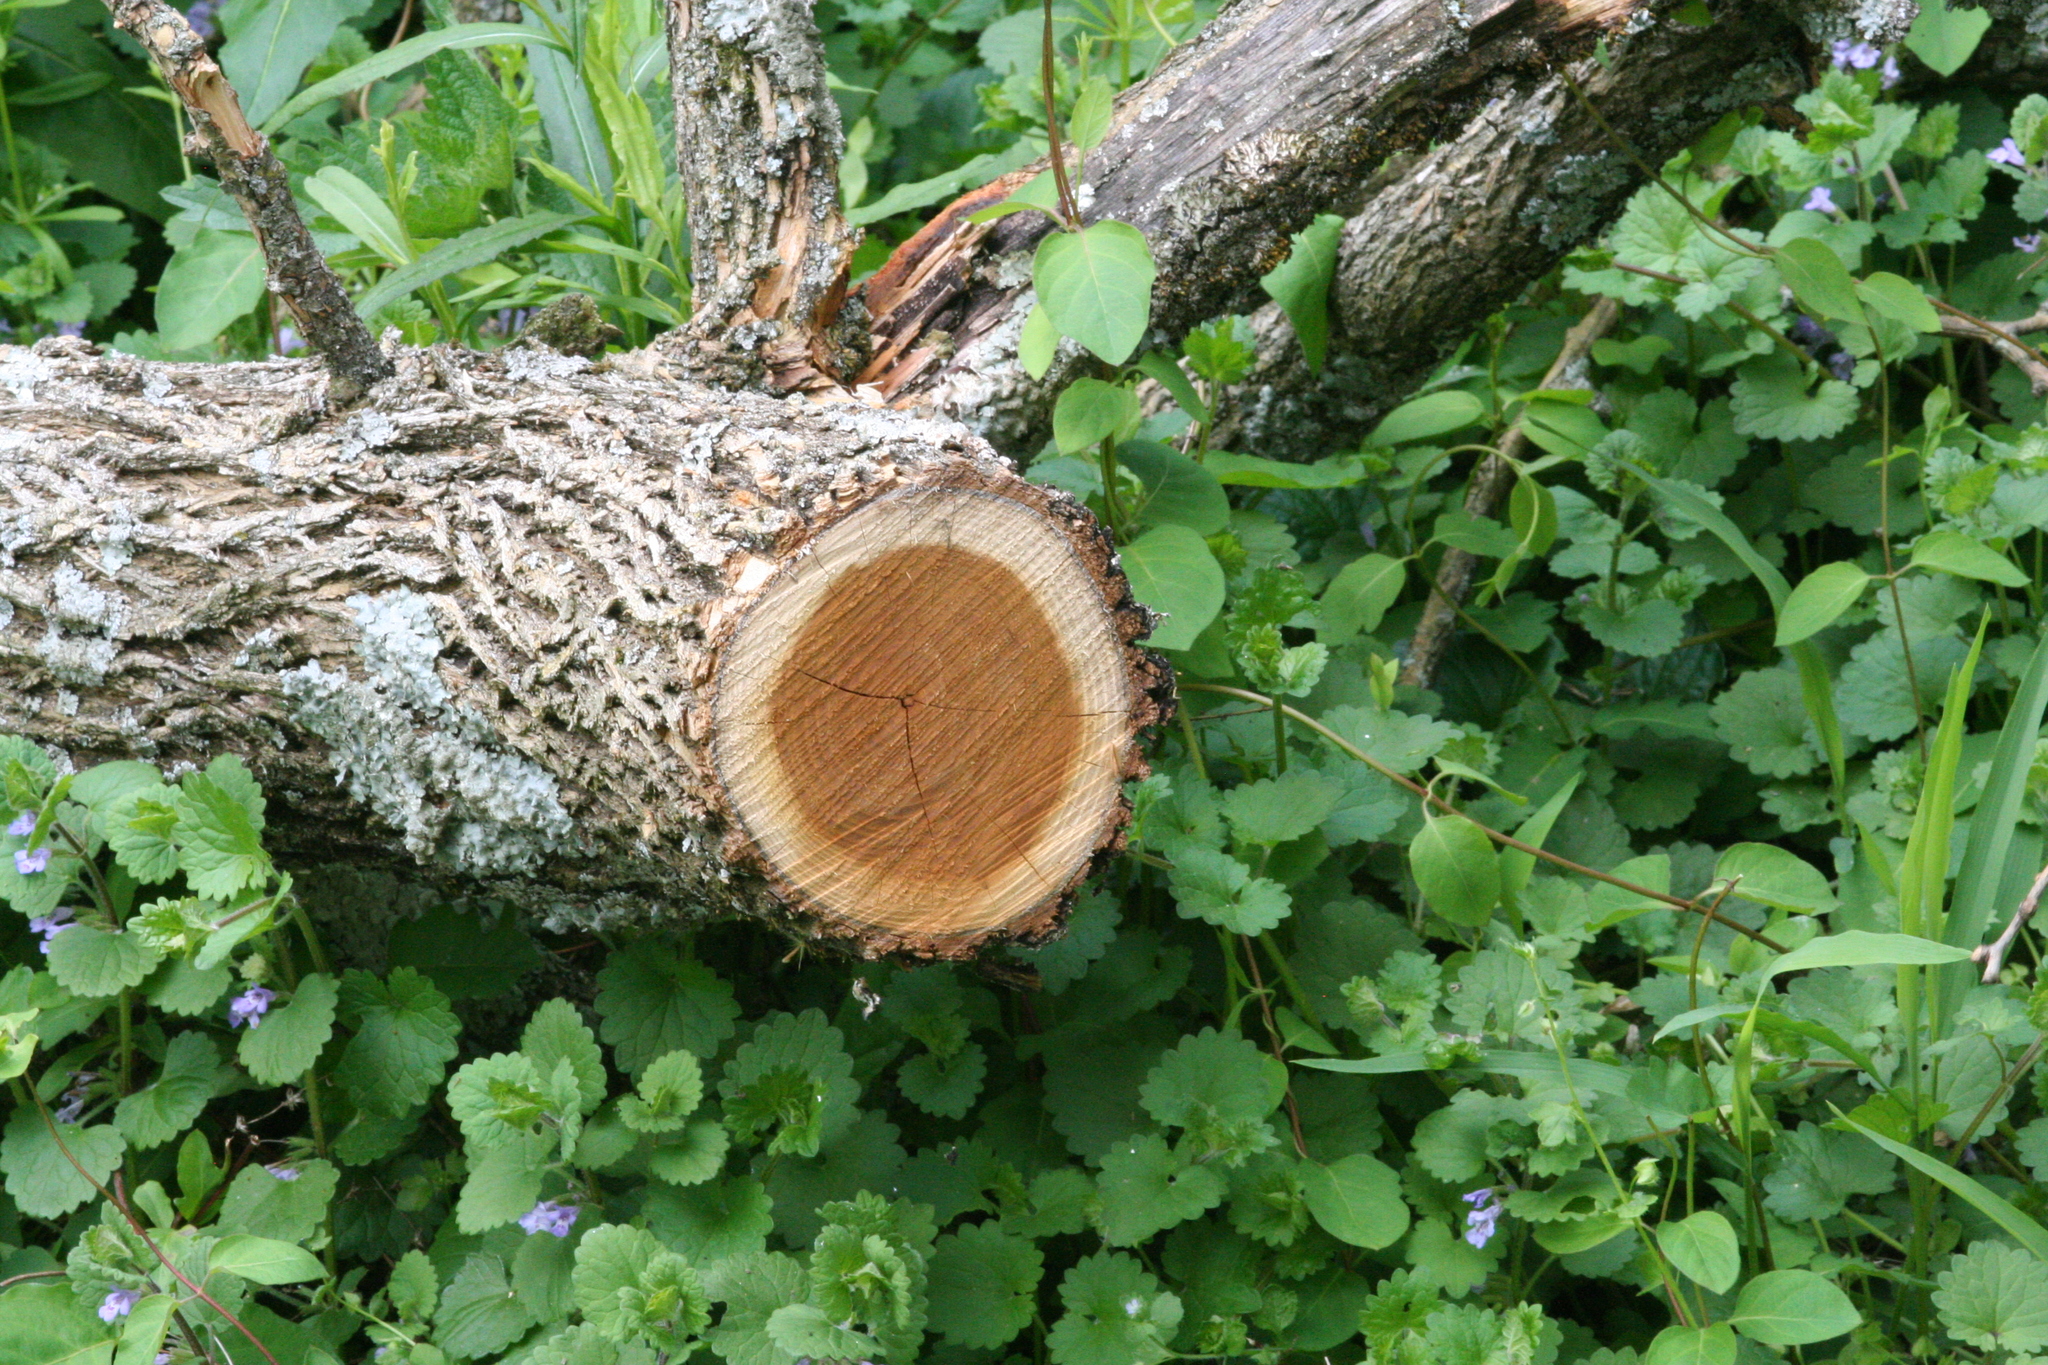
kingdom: Plantae
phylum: Tracheophyta
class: Magnoliopsida
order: Rosales
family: Moraceae
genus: Maclura
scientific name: Maclura pomifera
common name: Osage-orange
